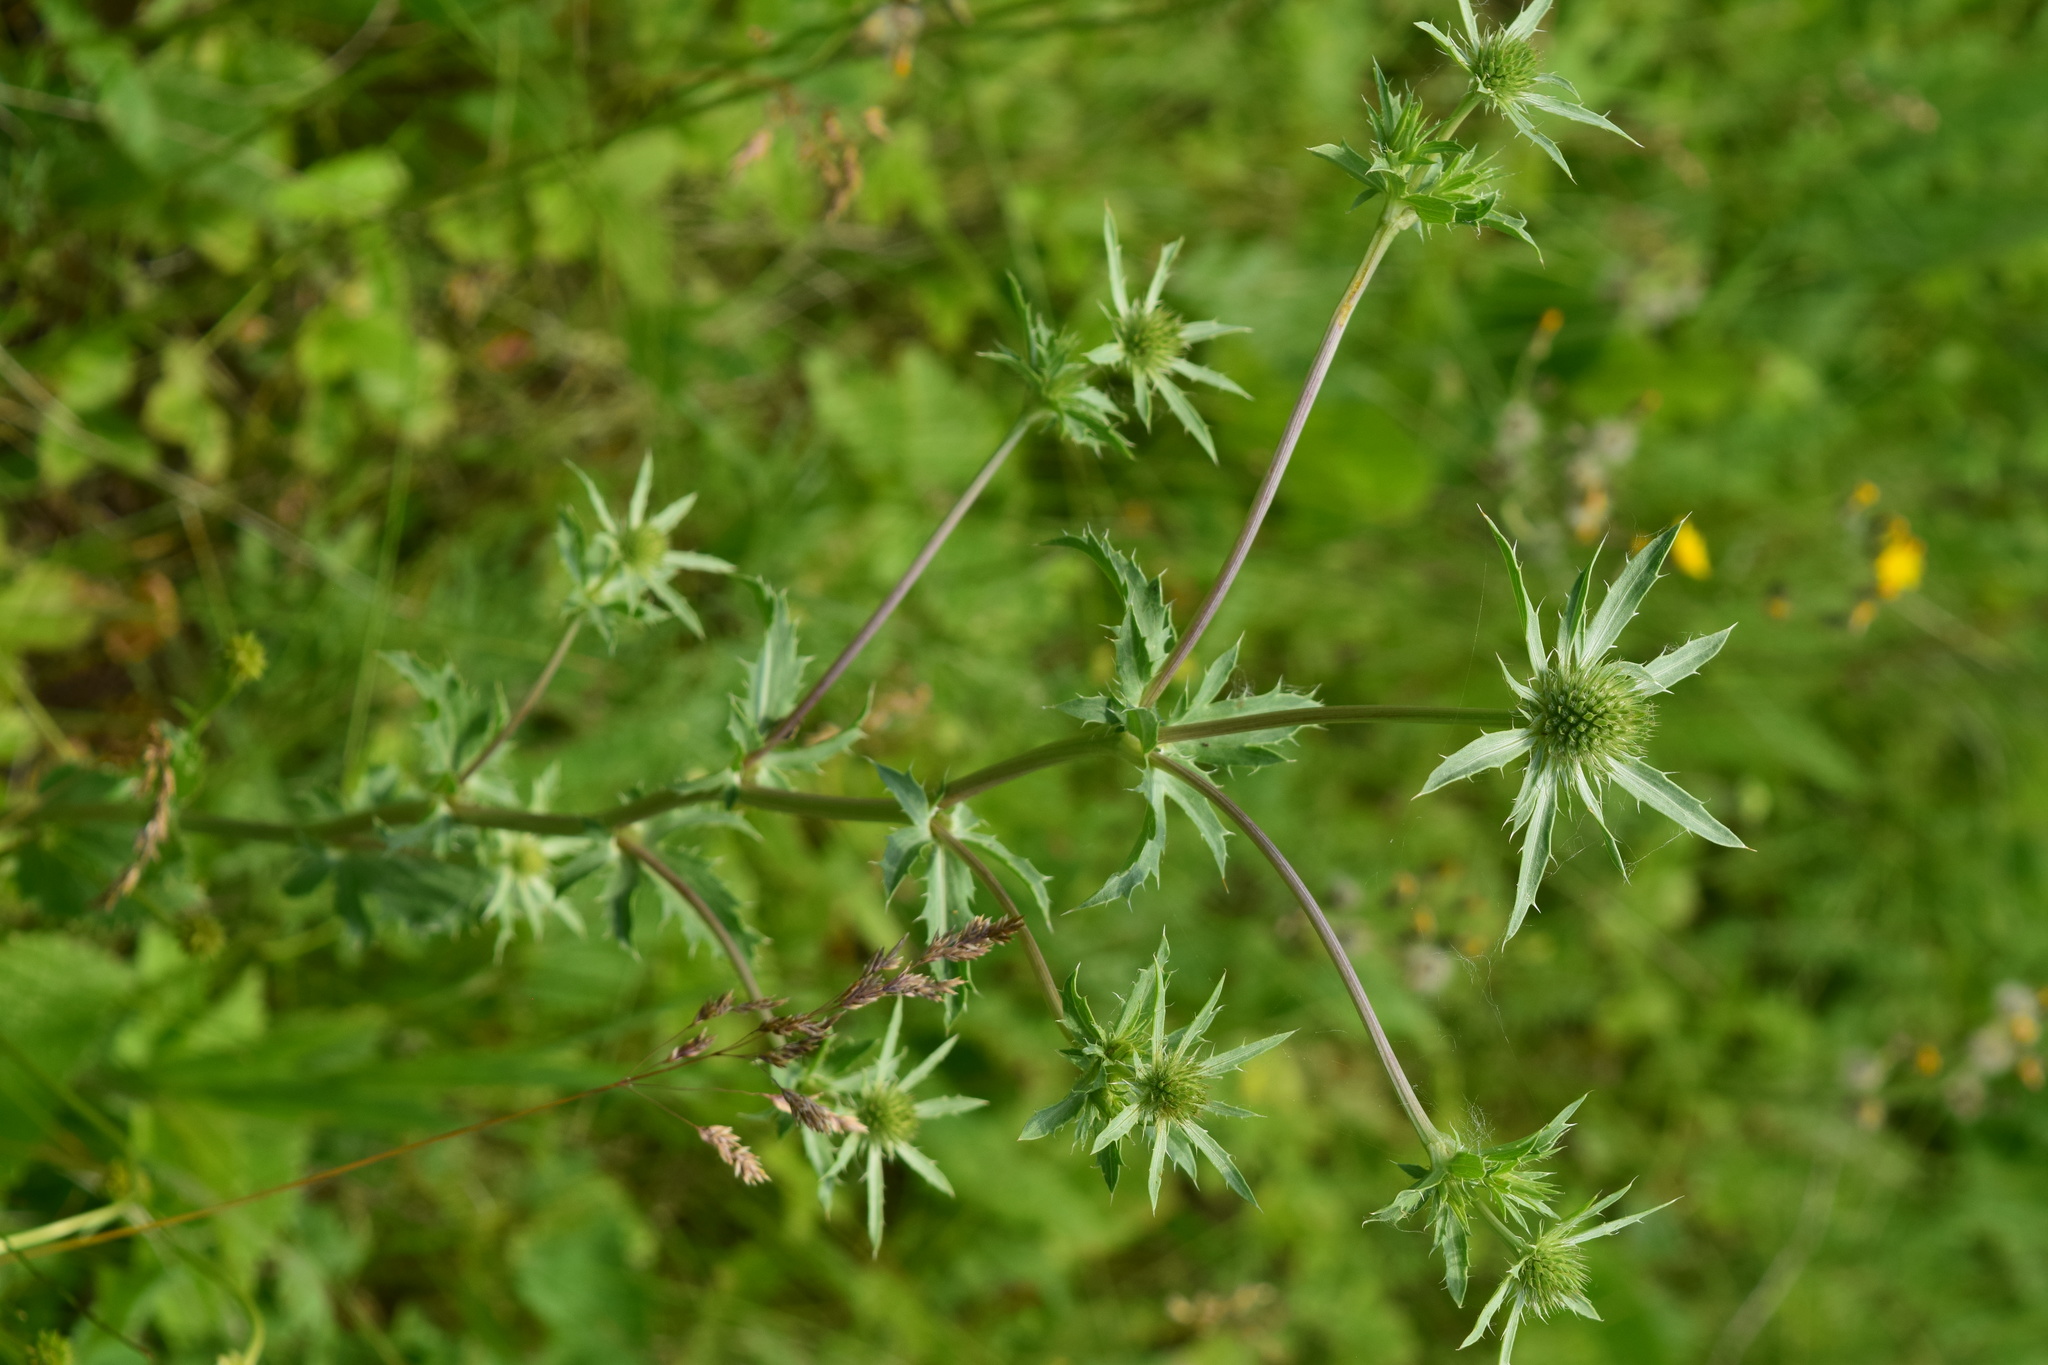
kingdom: Plantae
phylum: Tracheophyta
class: Magnoliopsida
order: Apiales
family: Apiaceae
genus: Eryngium
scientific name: Eryngium planum
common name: Blue eryngo
